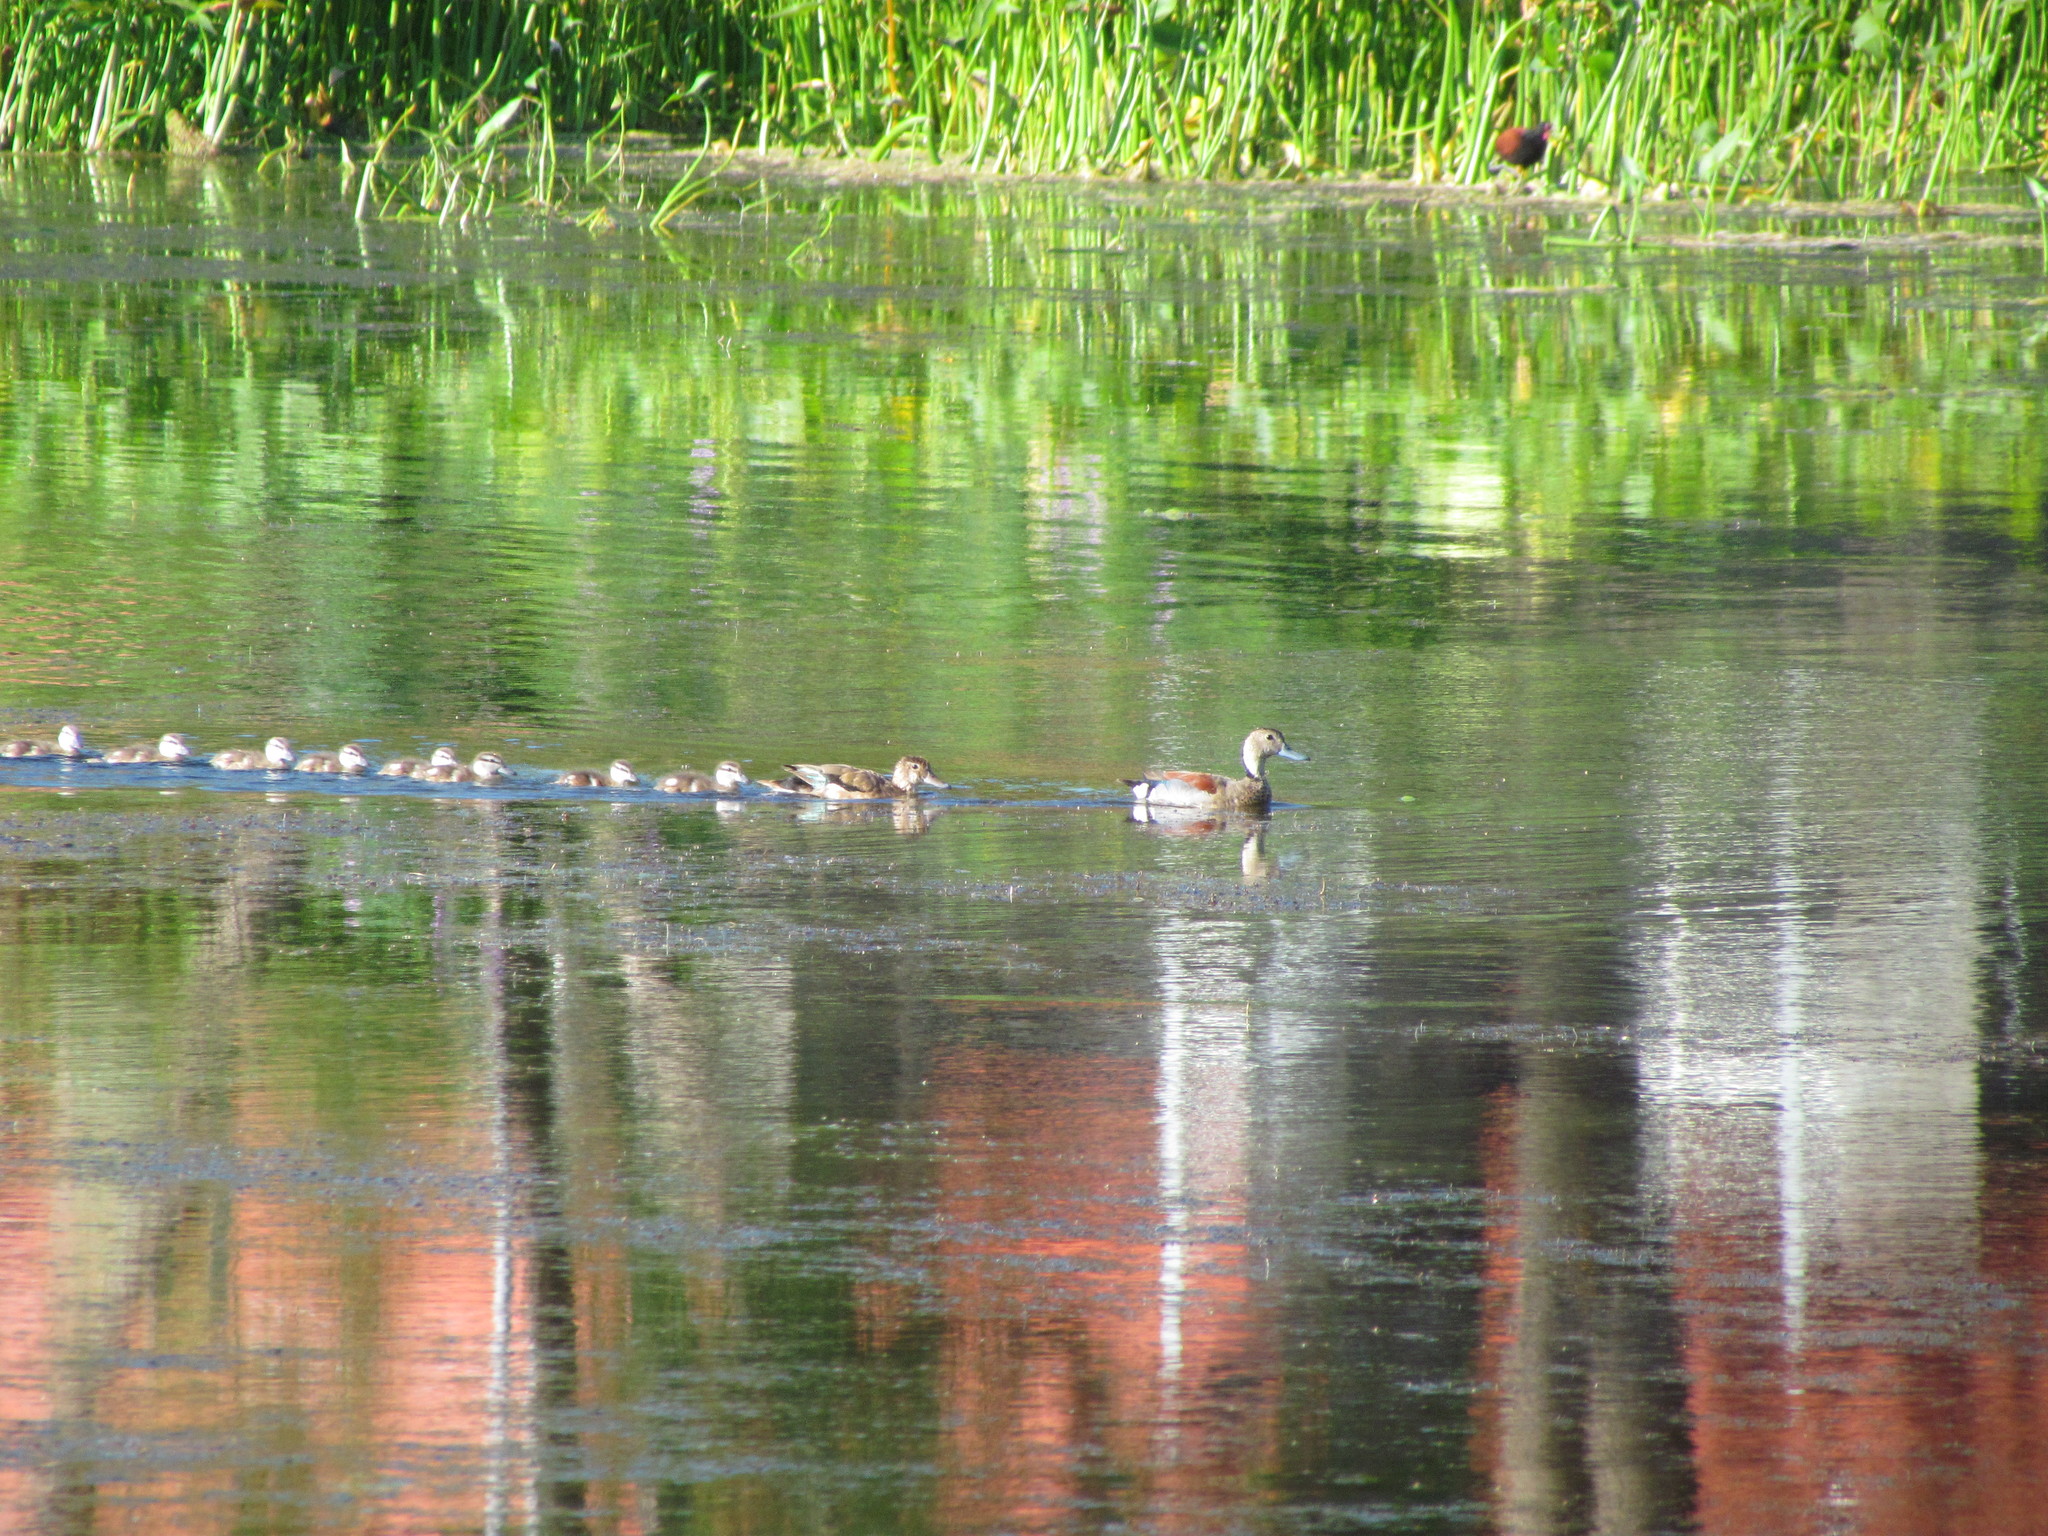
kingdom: Animalia
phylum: Chordata
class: Aves
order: Anseriformes
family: Anatidae
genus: Callonetta
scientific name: Callonetta leucophrys
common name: Ringed teal
